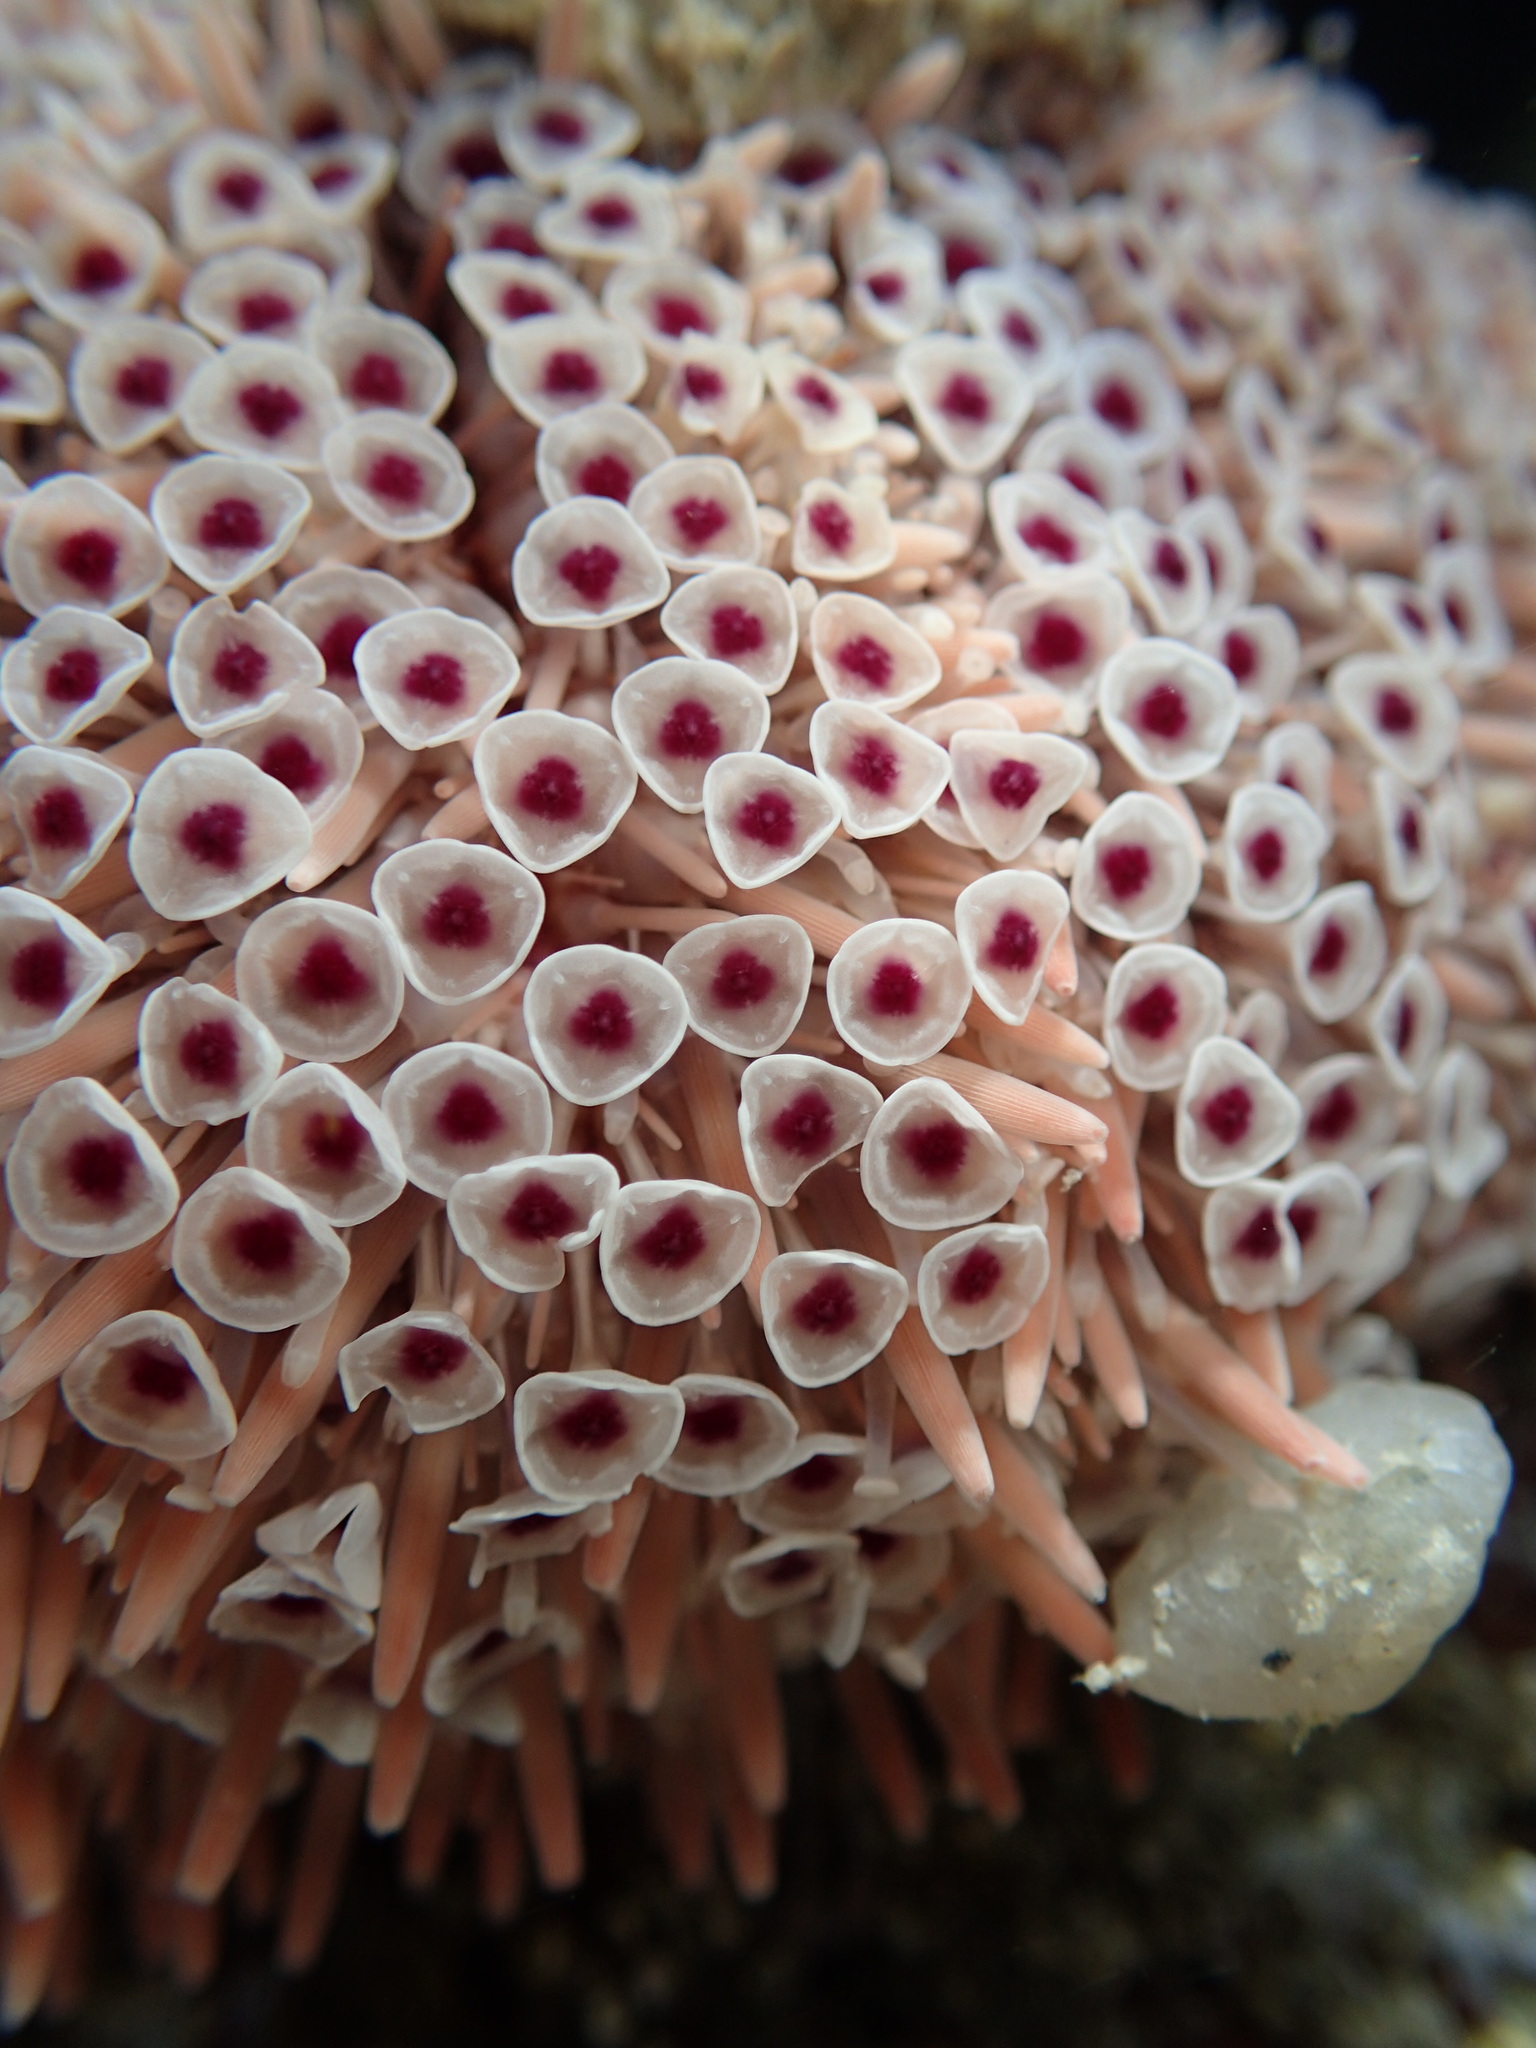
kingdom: Animalia
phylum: Echinodermata
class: Echinoidea
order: Camarodonta
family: Toxopneustidae
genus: Toxopneustes
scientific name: Toxopneustes roseus
